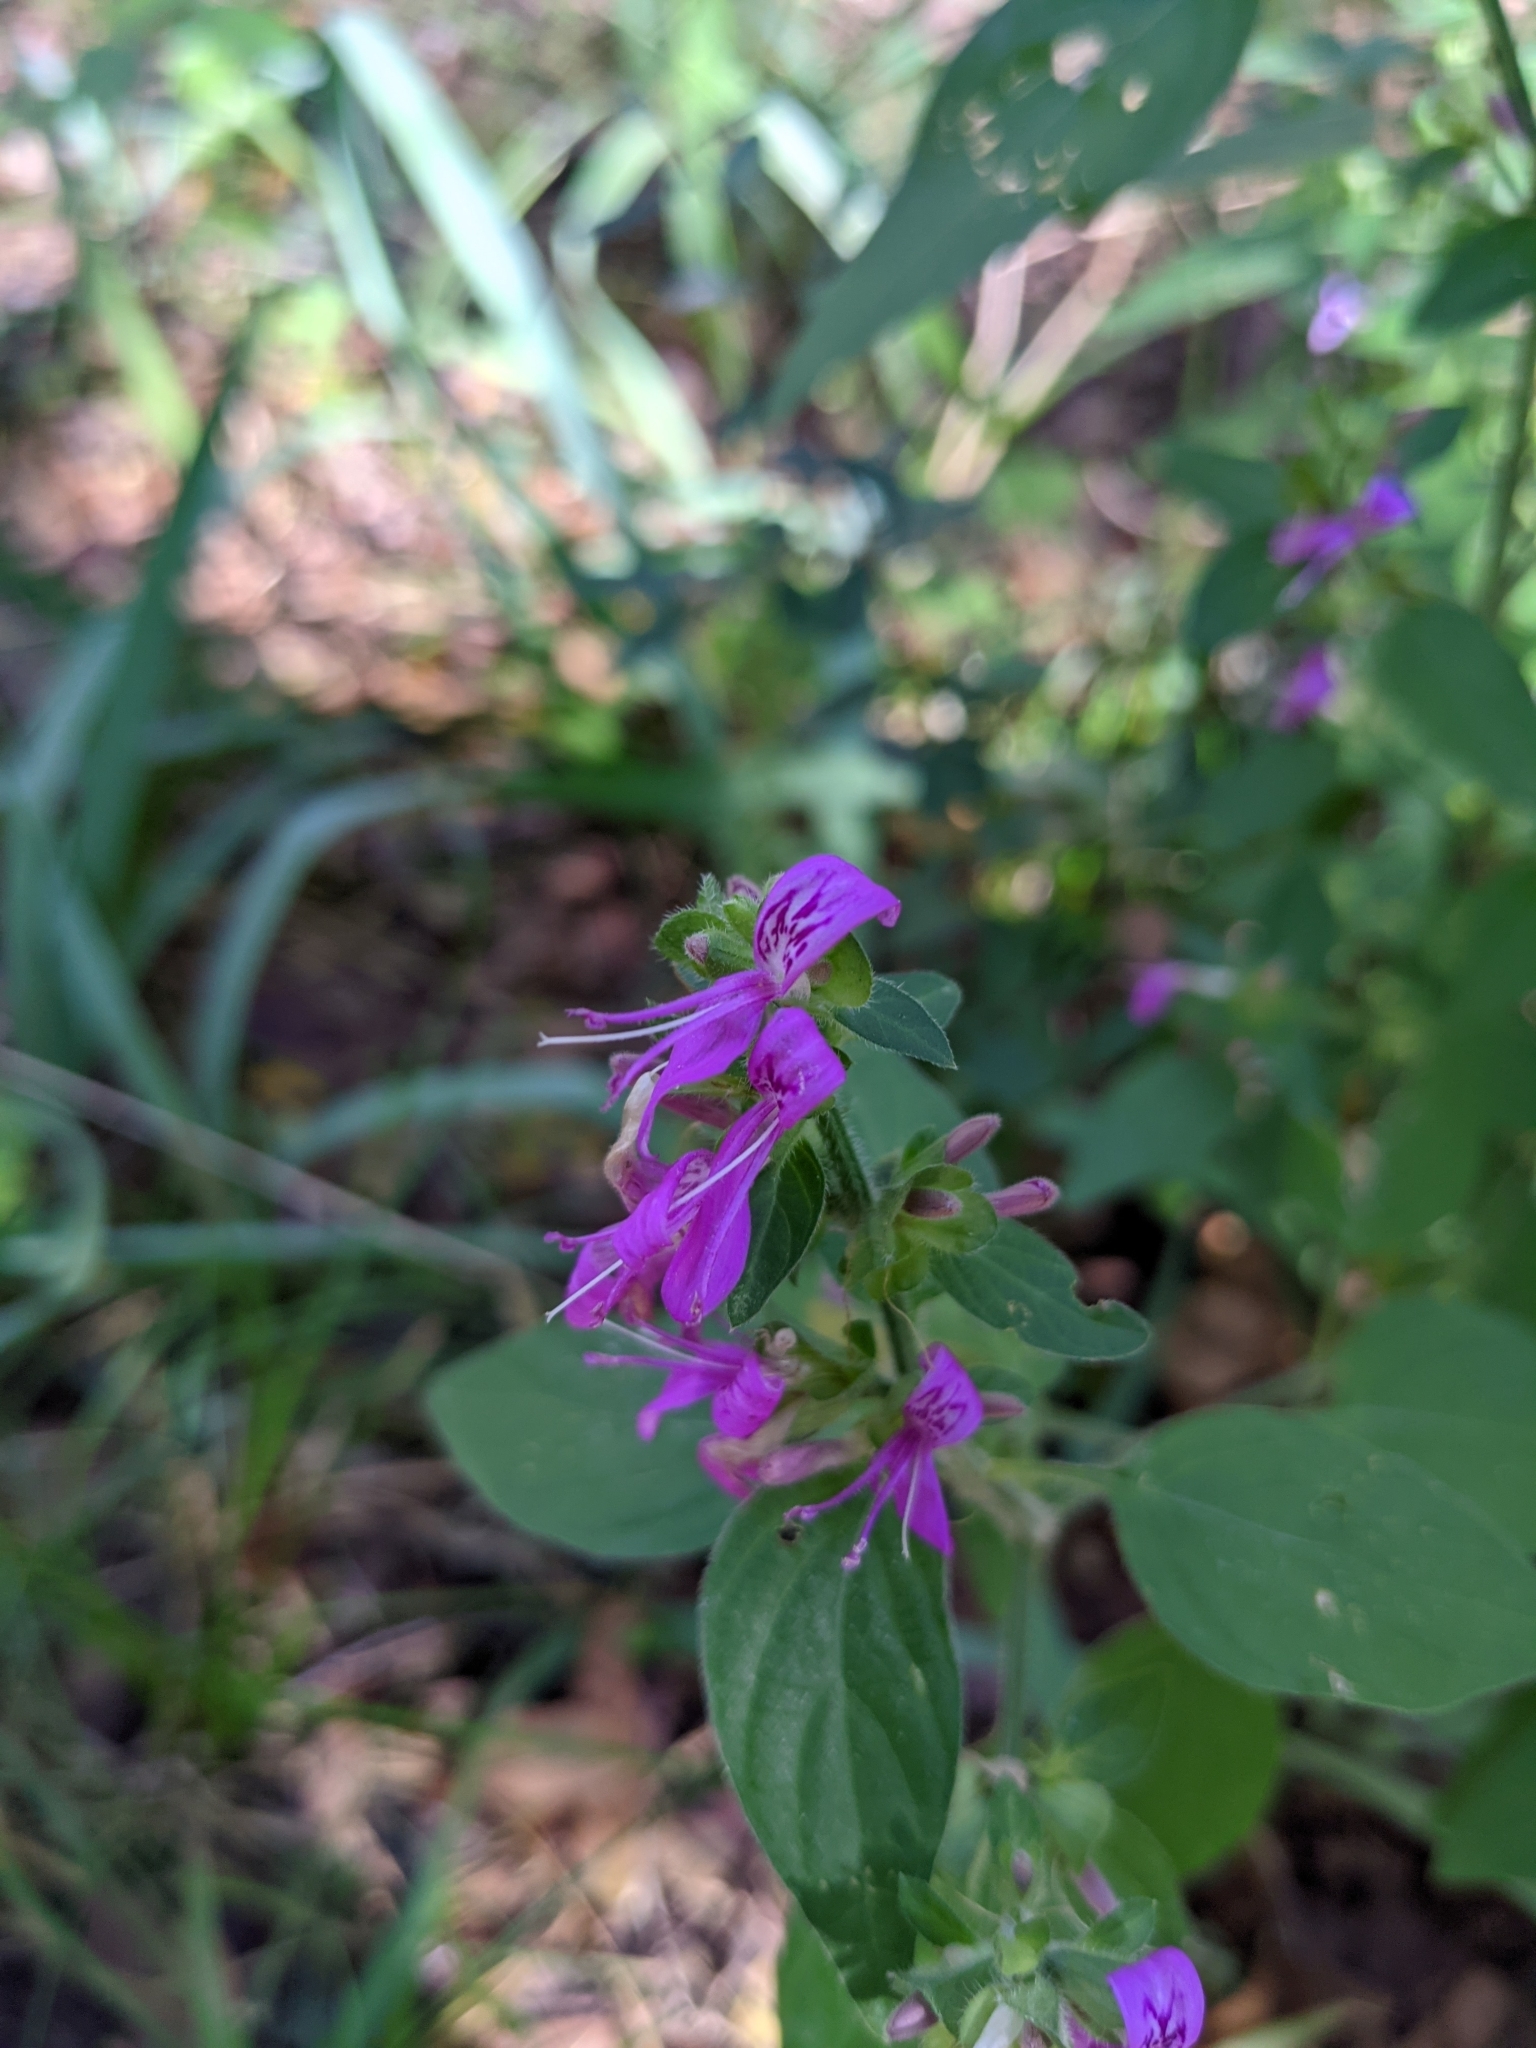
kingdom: Plantae
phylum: Tracheophyta
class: Magnoliopsida
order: Lamiales
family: Acanthaceae
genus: Dicliptera
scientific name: Dicliptera brachiata
